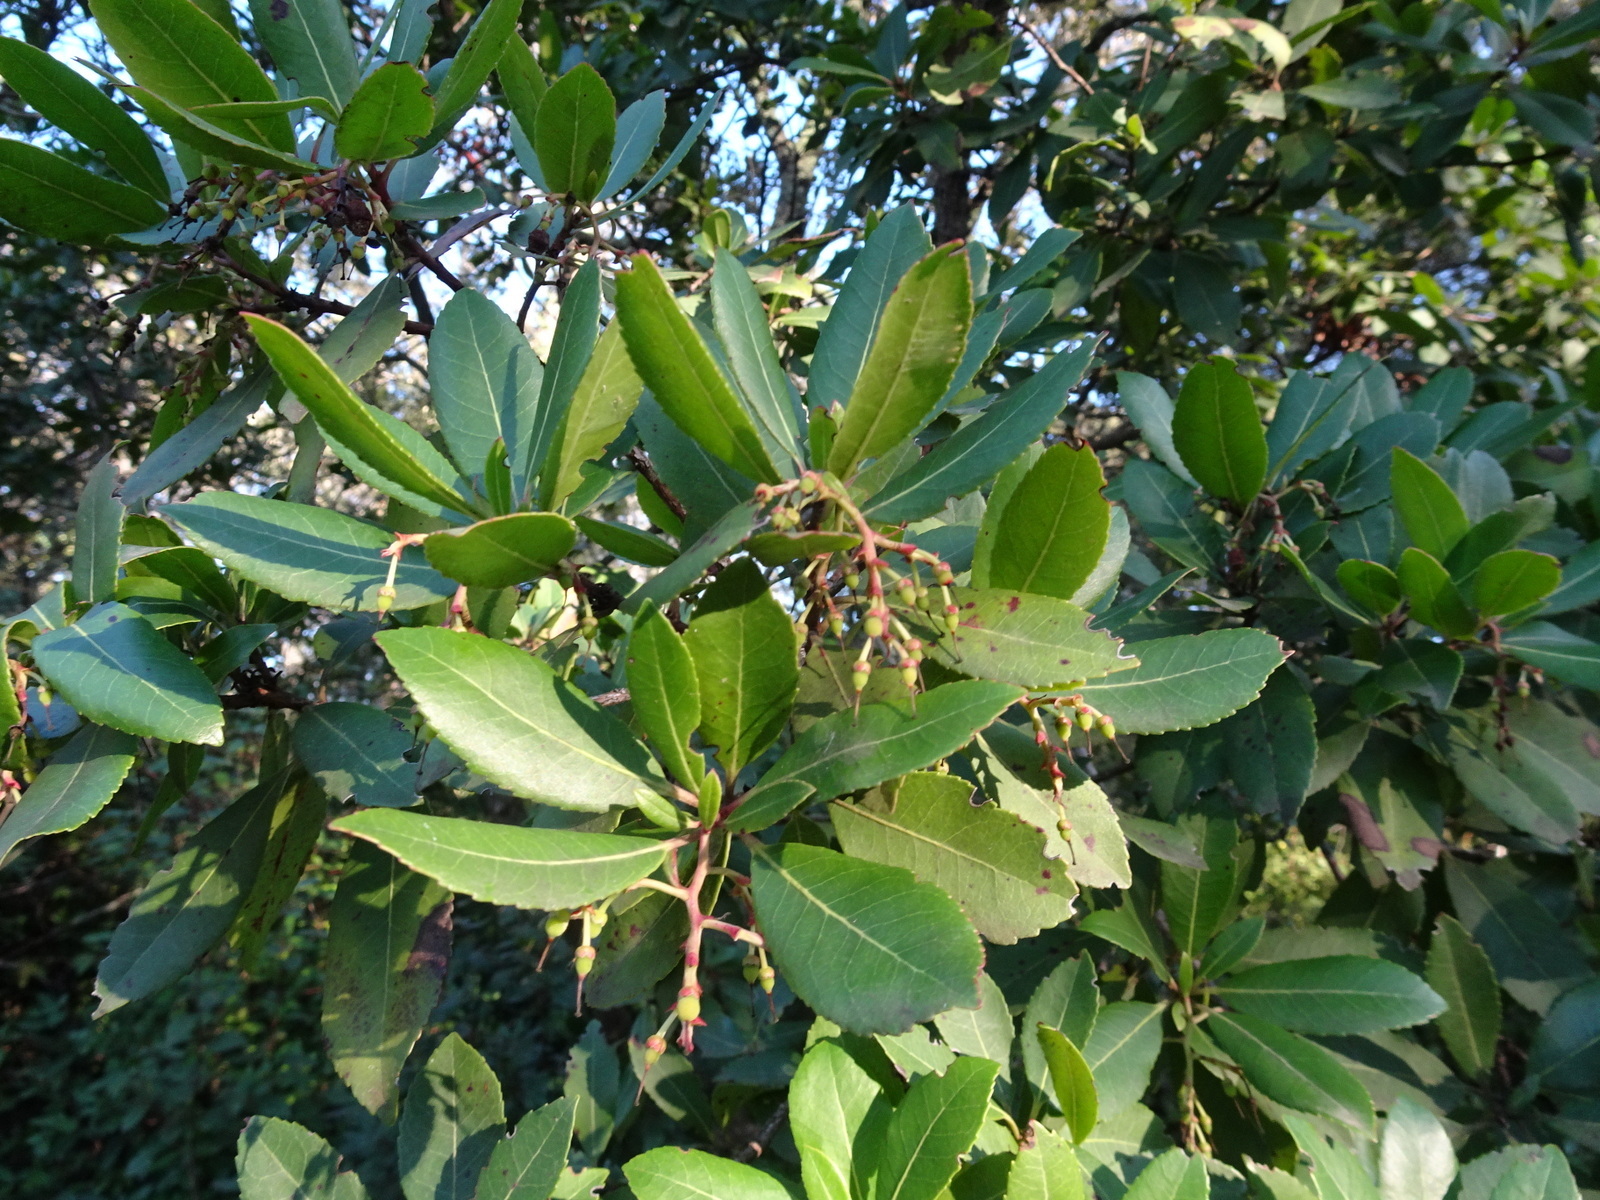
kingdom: Plantae
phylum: Tracheophyta
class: Magnoliopsida
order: Ericales
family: Ericaceae
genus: Arbutus
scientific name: Arbutus unedo
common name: Strawberry-tree
